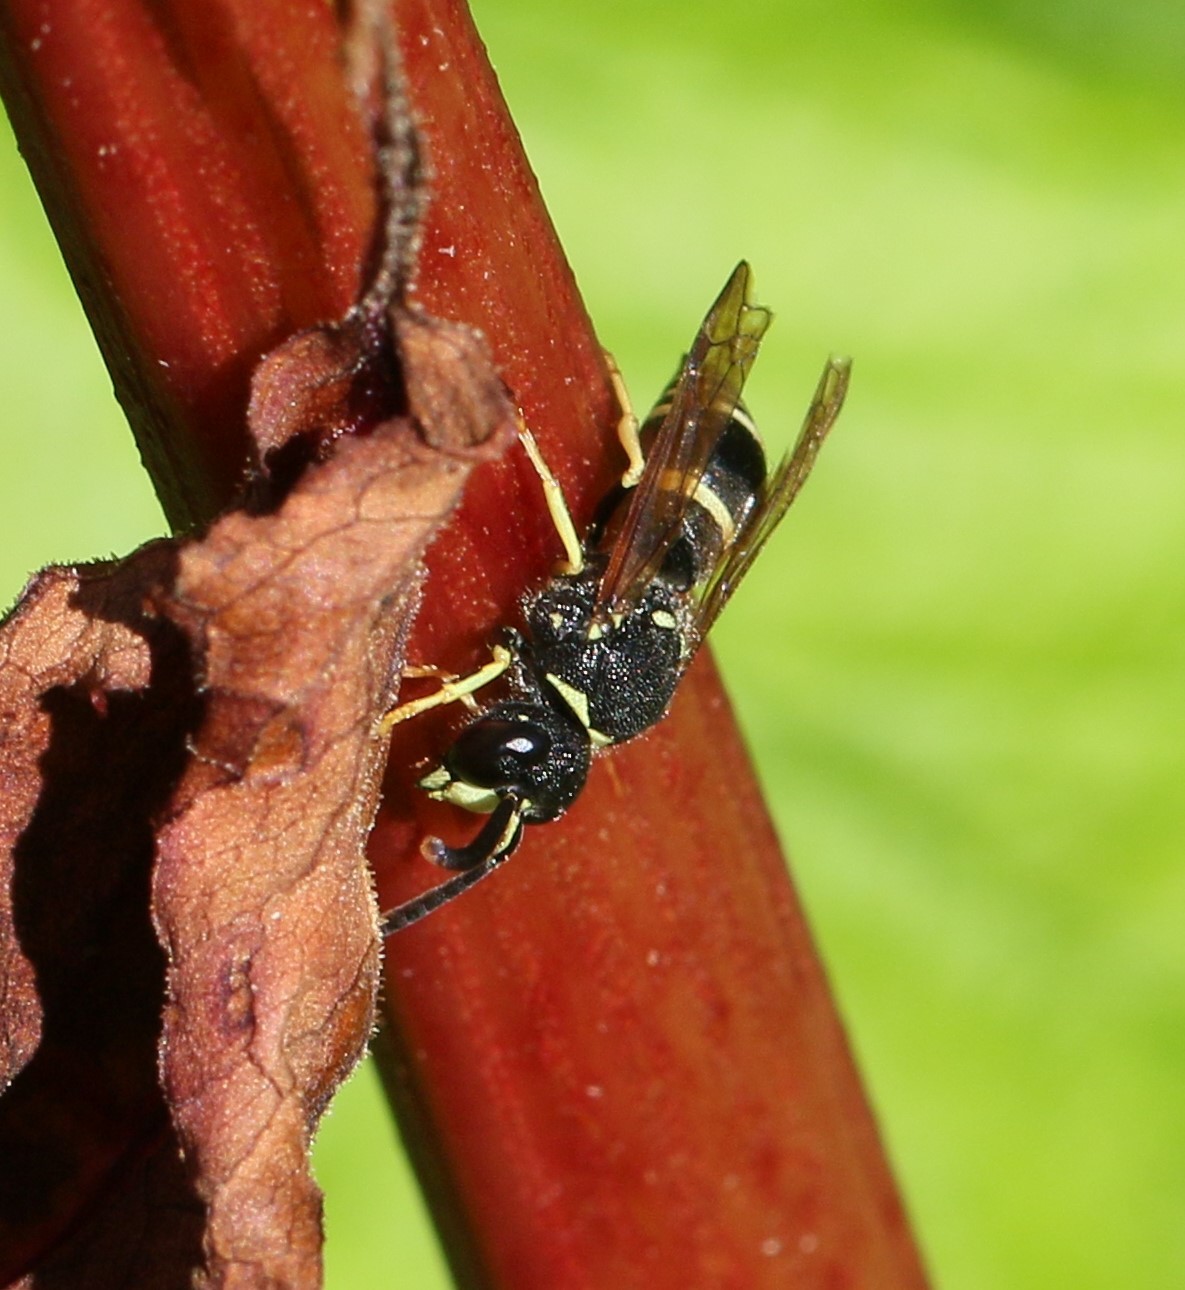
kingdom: Animalia
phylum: Arthropoda
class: Insecta
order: Hymenoptera
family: Vespidae
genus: Ancistrocerus
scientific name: Ancistrocerus
